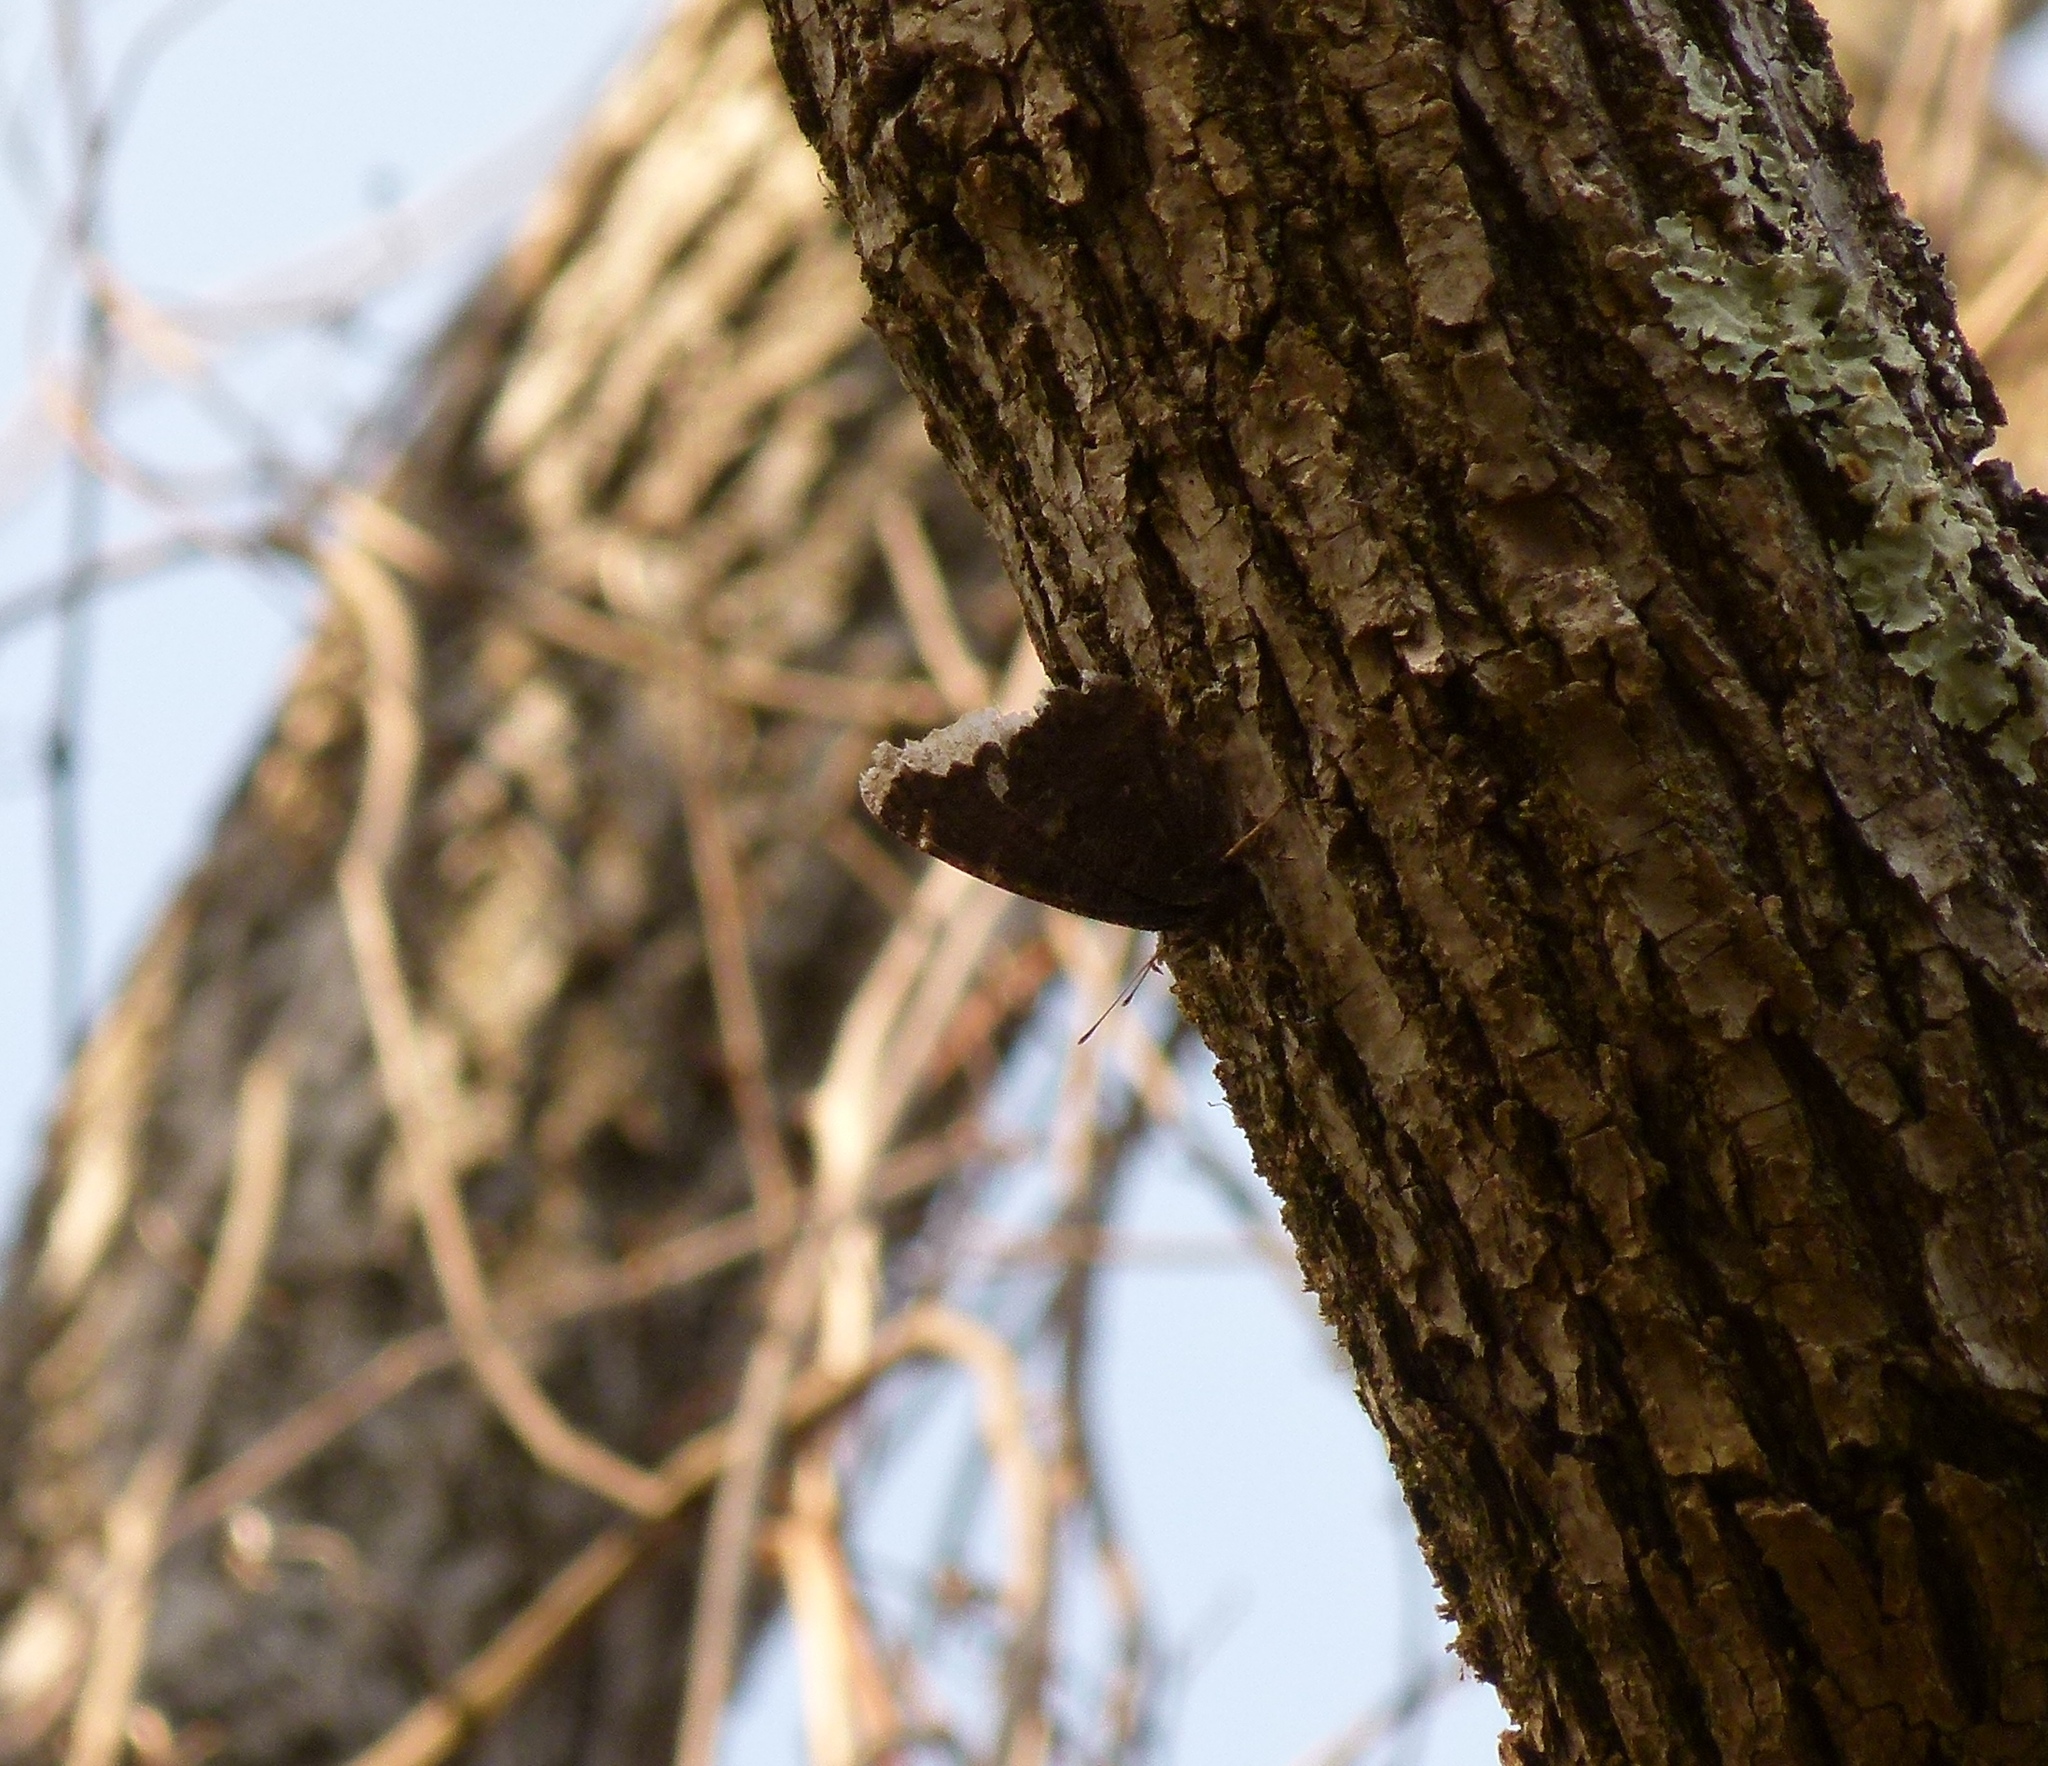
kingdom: Animalia
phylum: Arthropoda
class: Insecta
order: Lepidoptera
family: Nymphalidae
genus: Nymphalis
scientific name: Nymphalis antiopa
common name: Camberwell beauty
